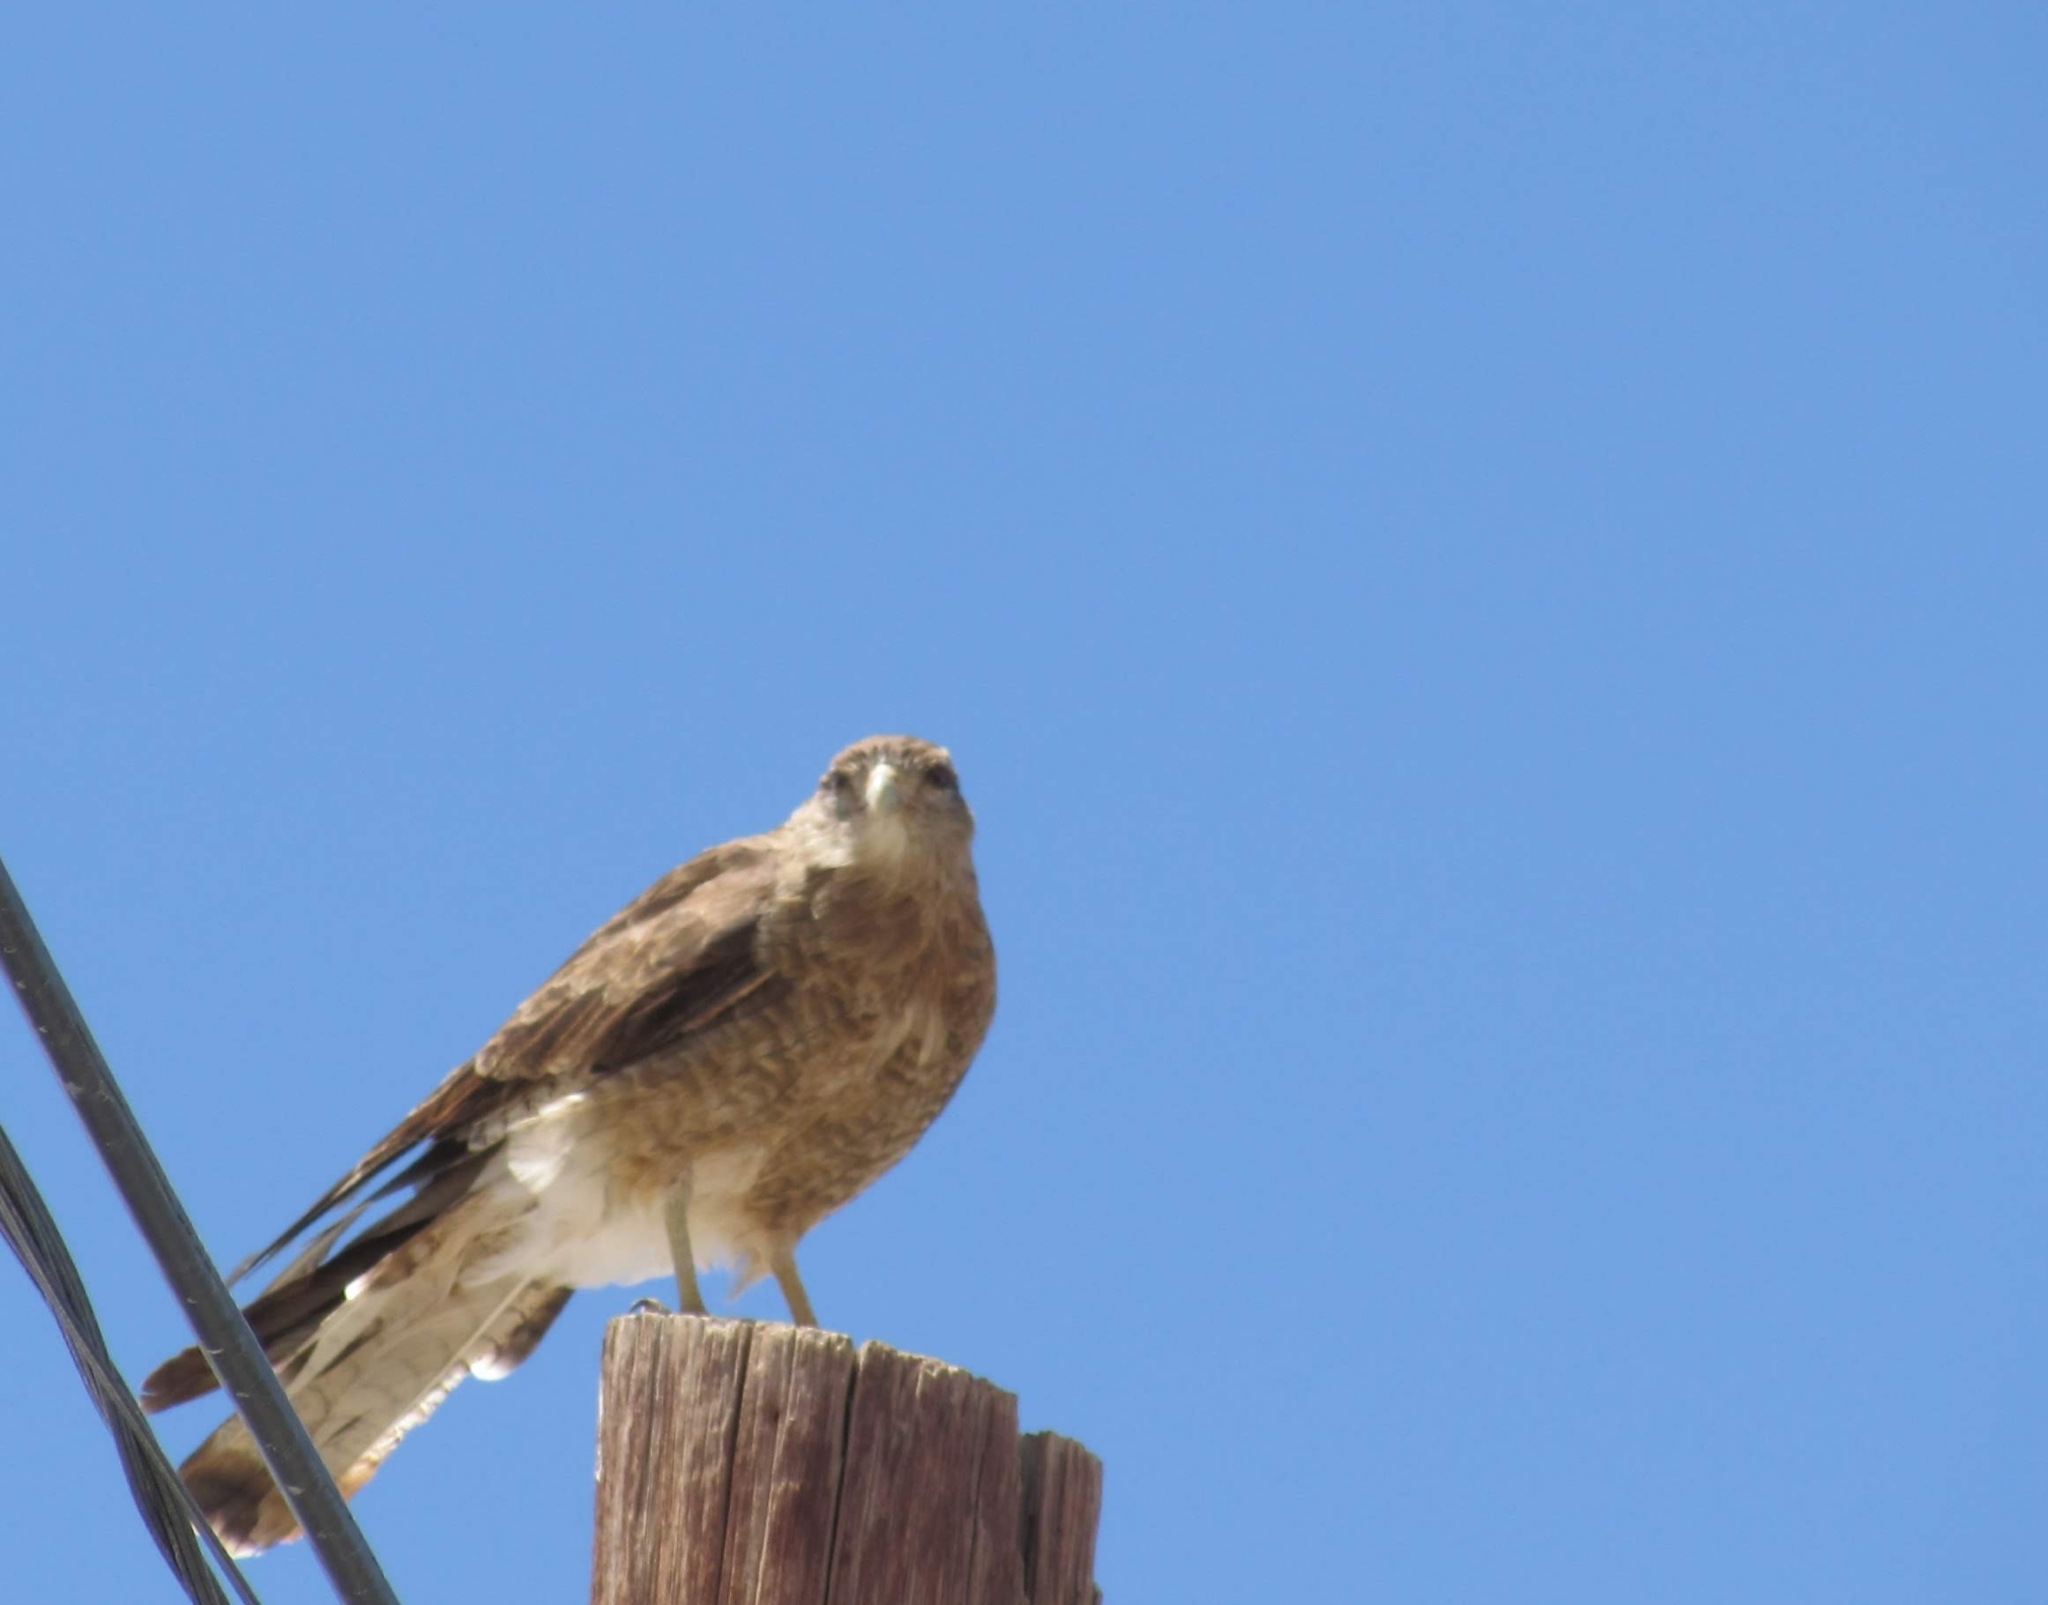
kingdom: Animalia
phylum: Chordata
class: Aves
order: Falconiformes
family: Falconidae
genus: Daptrius
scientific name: Daptrius
